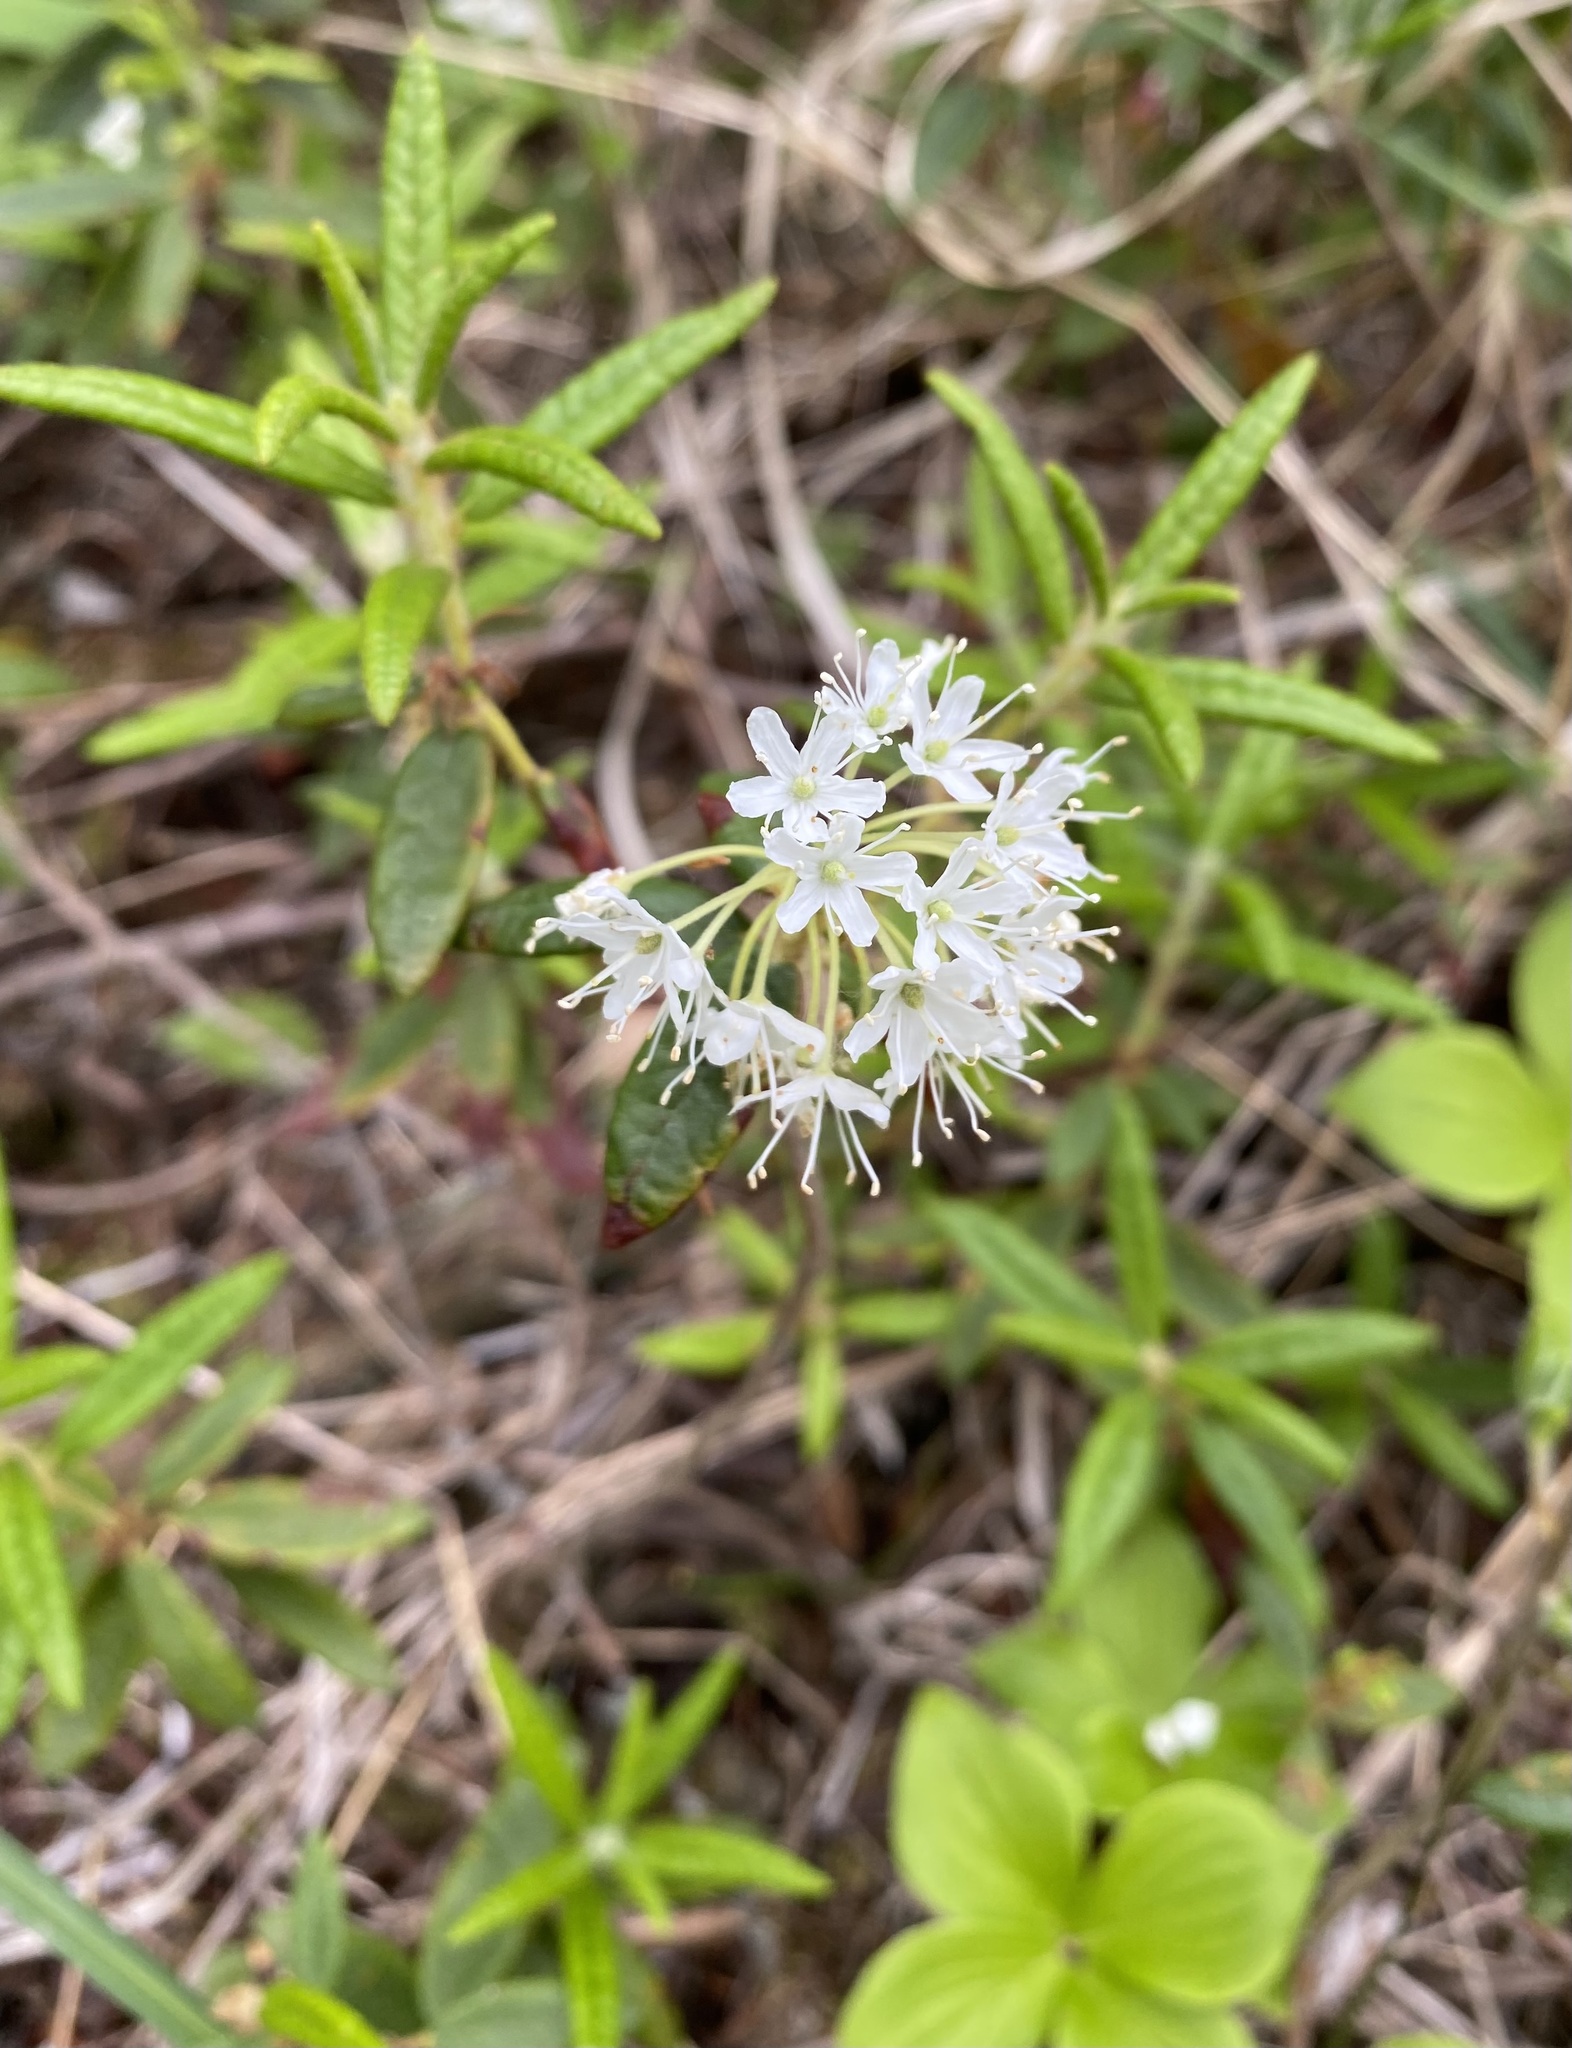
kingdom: Plantae
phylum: Tracheophyta
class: Magnoliopsida
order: Ericales
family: Ericaceae
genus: Rhododendron
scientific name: Rhododendron groenlandicum
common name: Bog labrador tea
